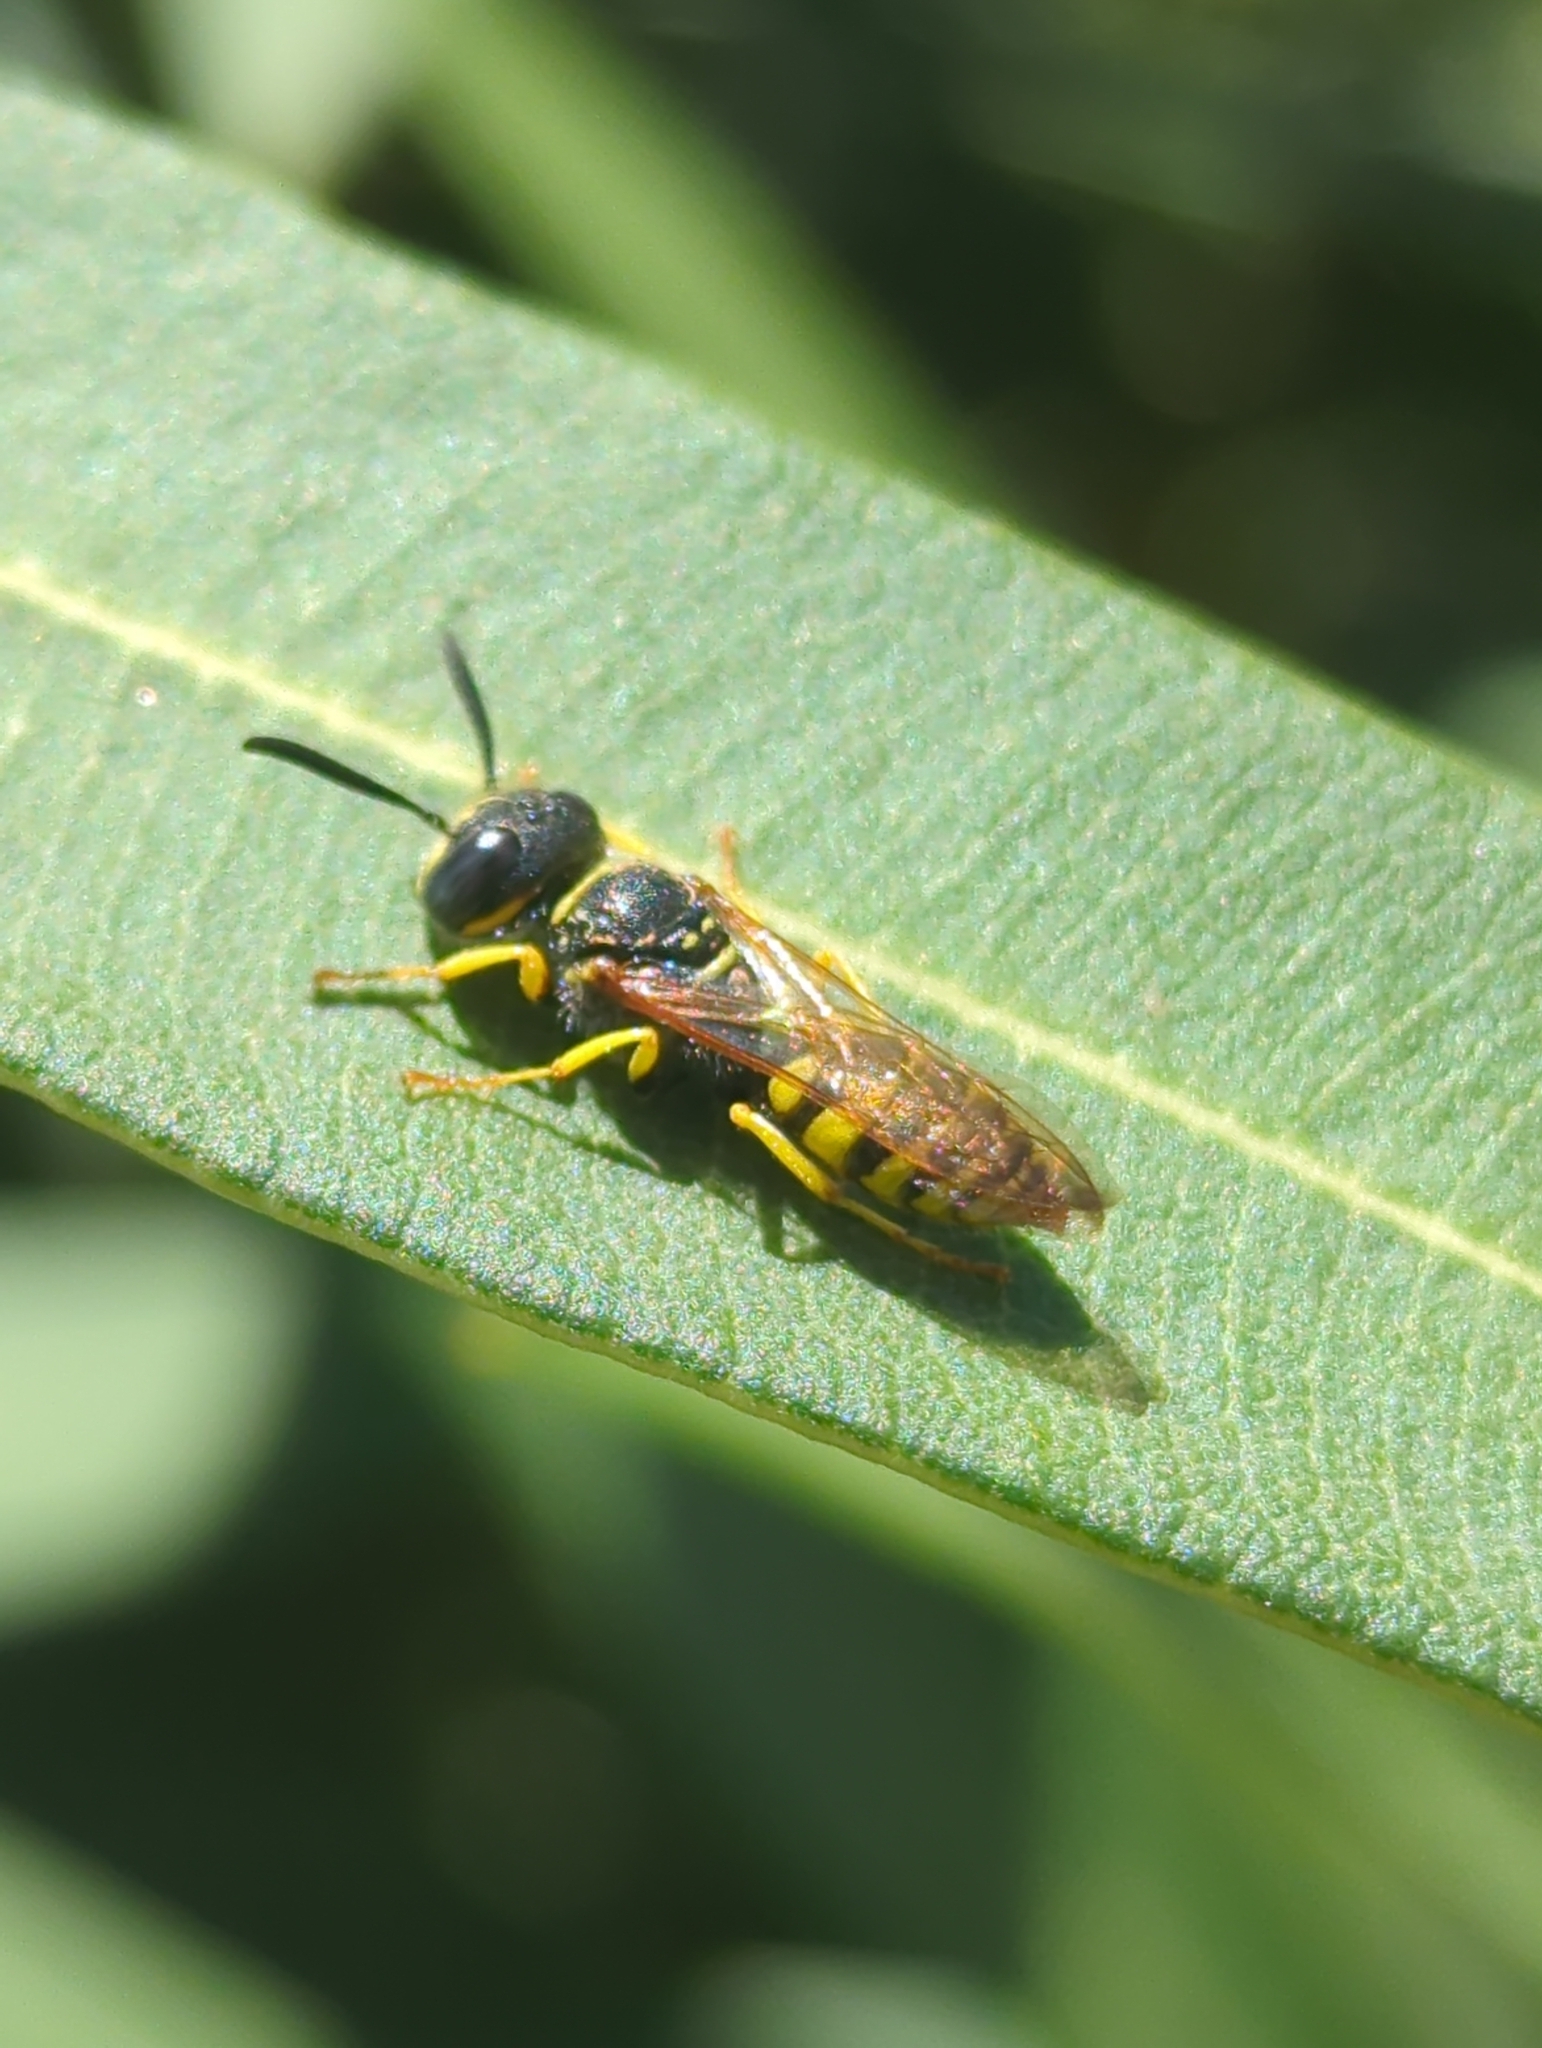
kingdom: Animalia
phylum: Arthropoda
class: Insecta
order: Hymenoptera
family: Crabronidae
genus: Philanthus
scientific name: Philanthus triangulum
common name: Bee wolf
